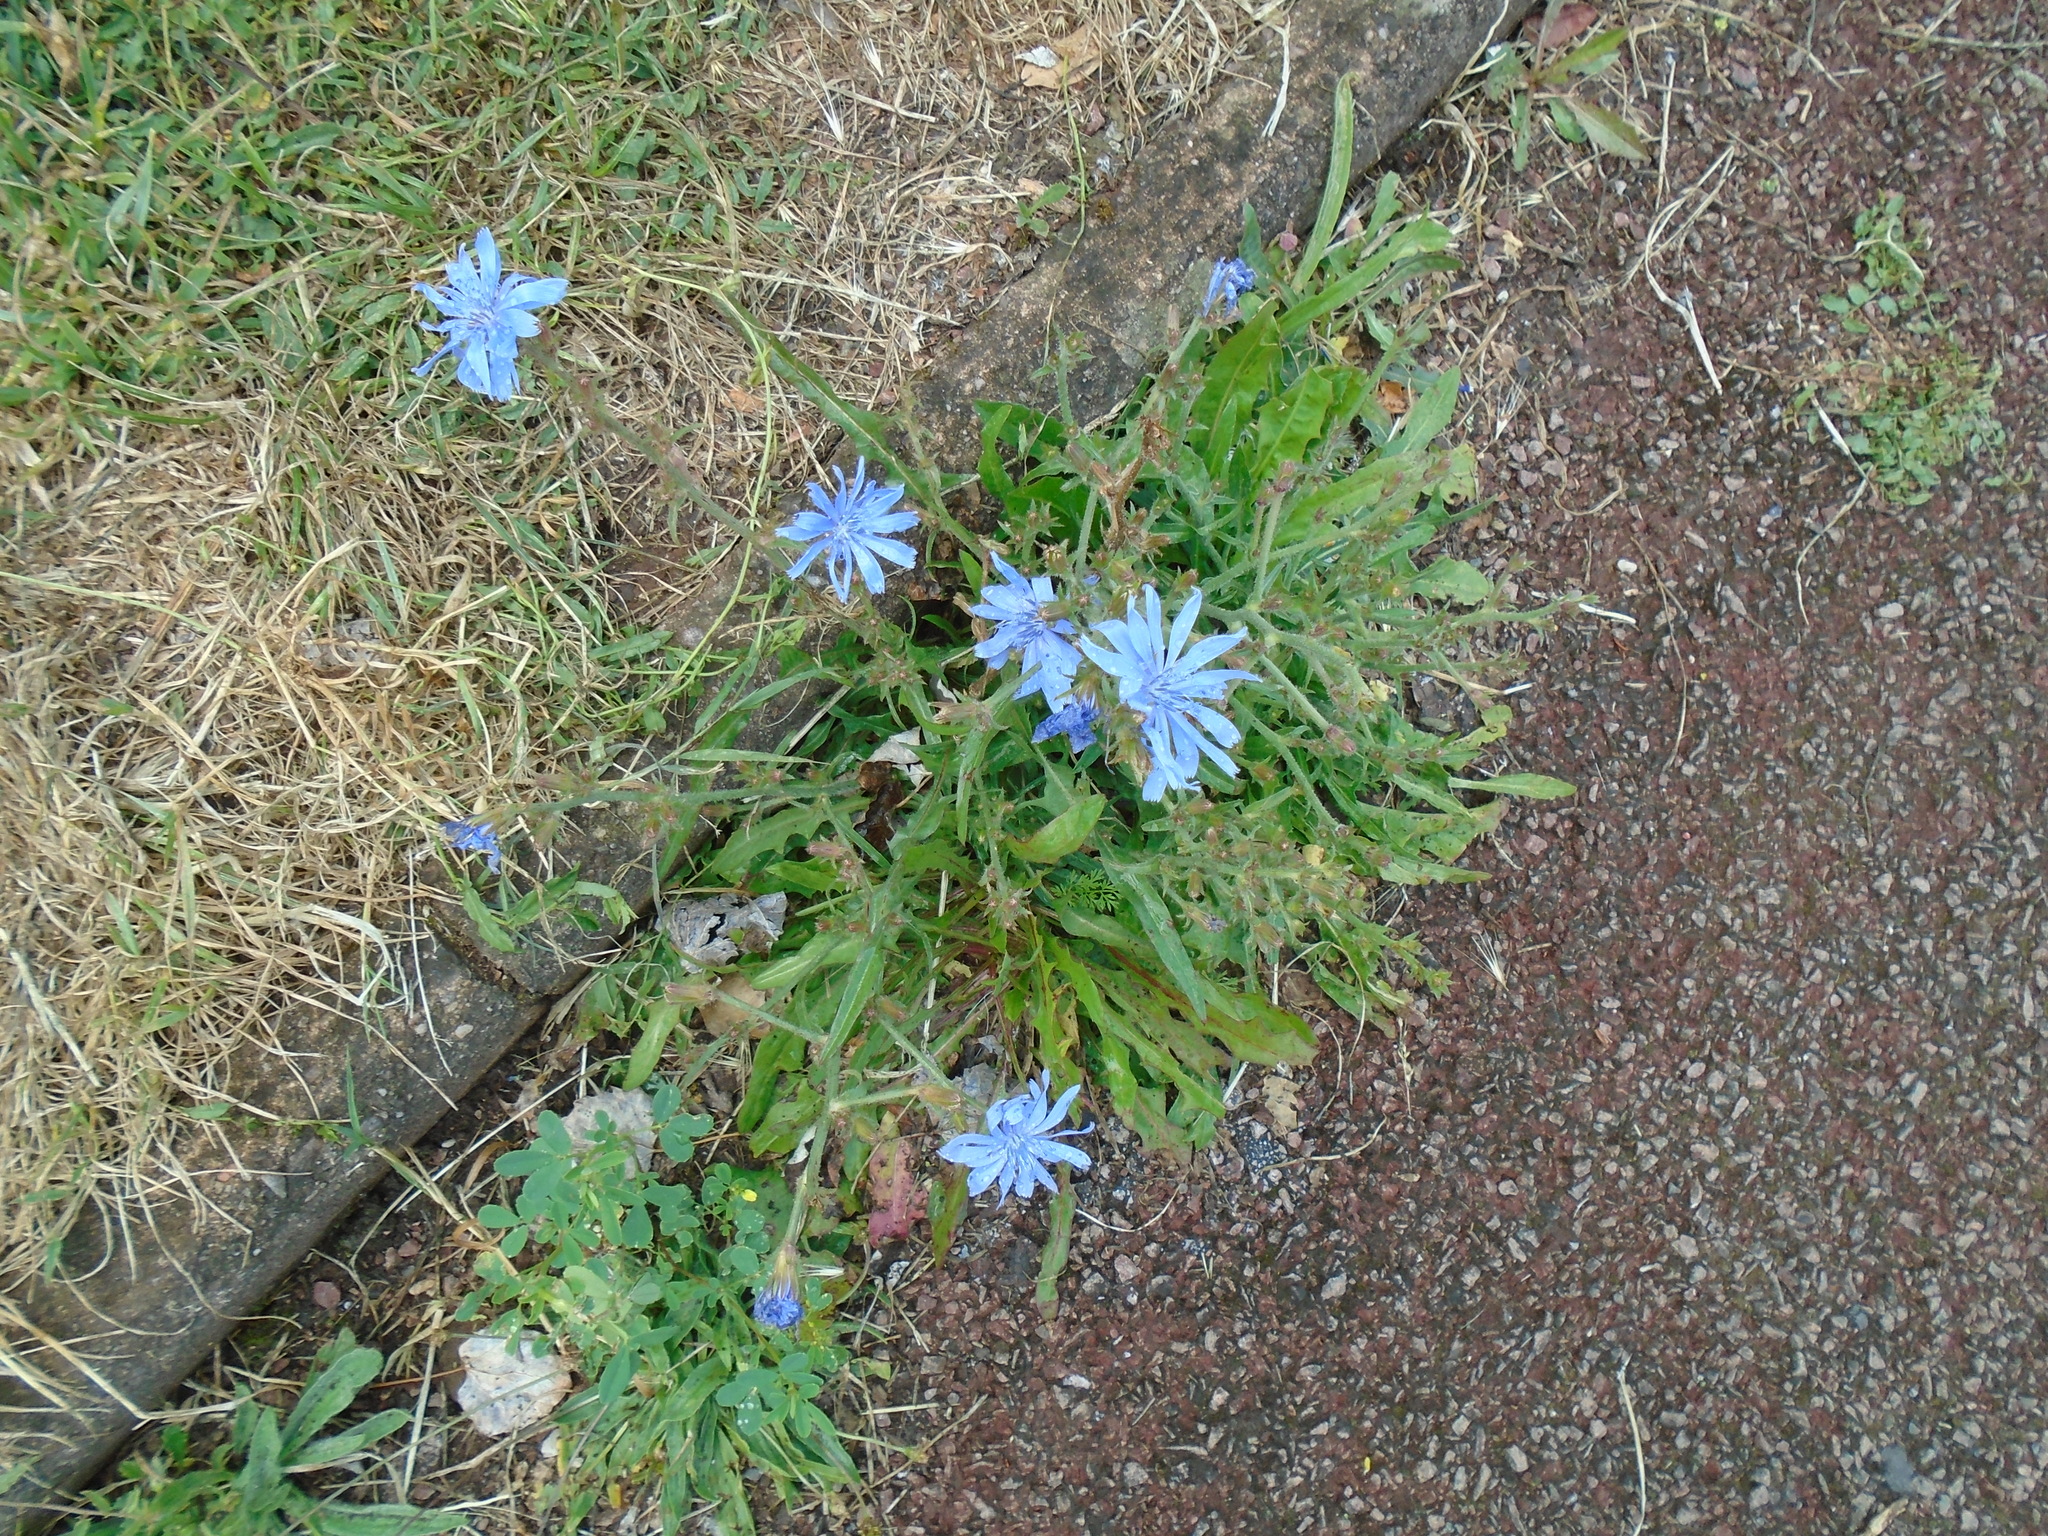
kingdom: Plantae
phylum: Tracheophyta
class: Magnoliopsida
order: Asterales
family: Asteraceae
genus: Cichorium
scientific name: Cichorium intybus
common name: Chicory
